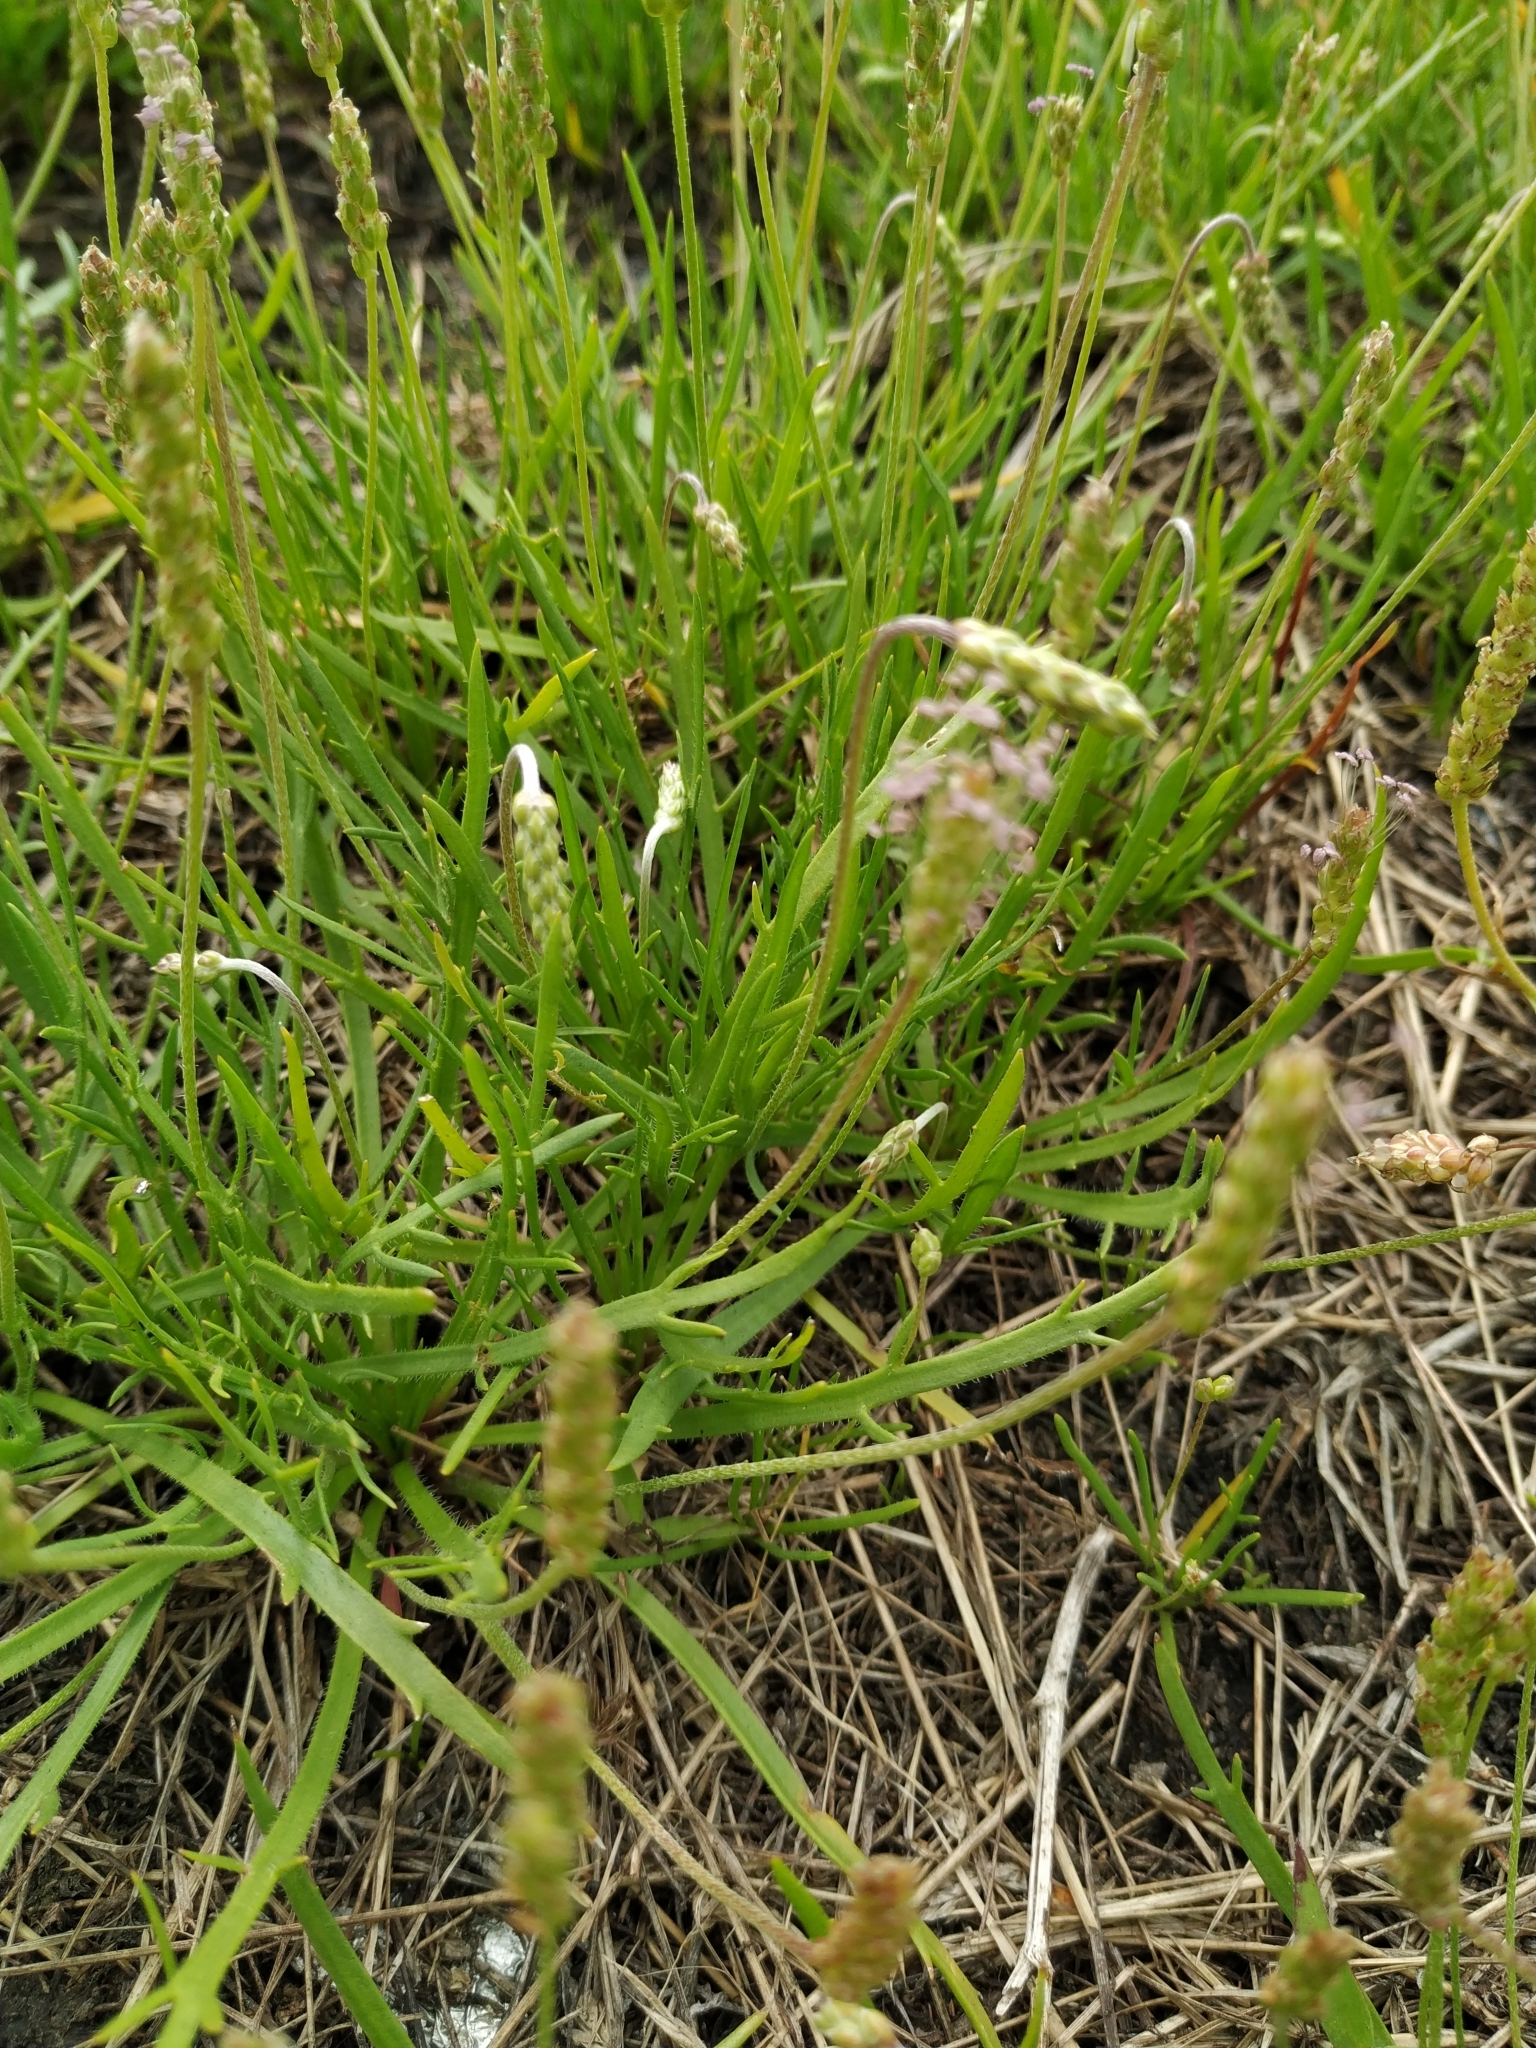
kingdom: Plantae
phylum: Tracheophyta
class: Magnoliopsida
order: Lamiales
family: Plantaginaceae
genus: Plantago
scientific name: Plantago coronopus
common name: Buck's-horn plantain
